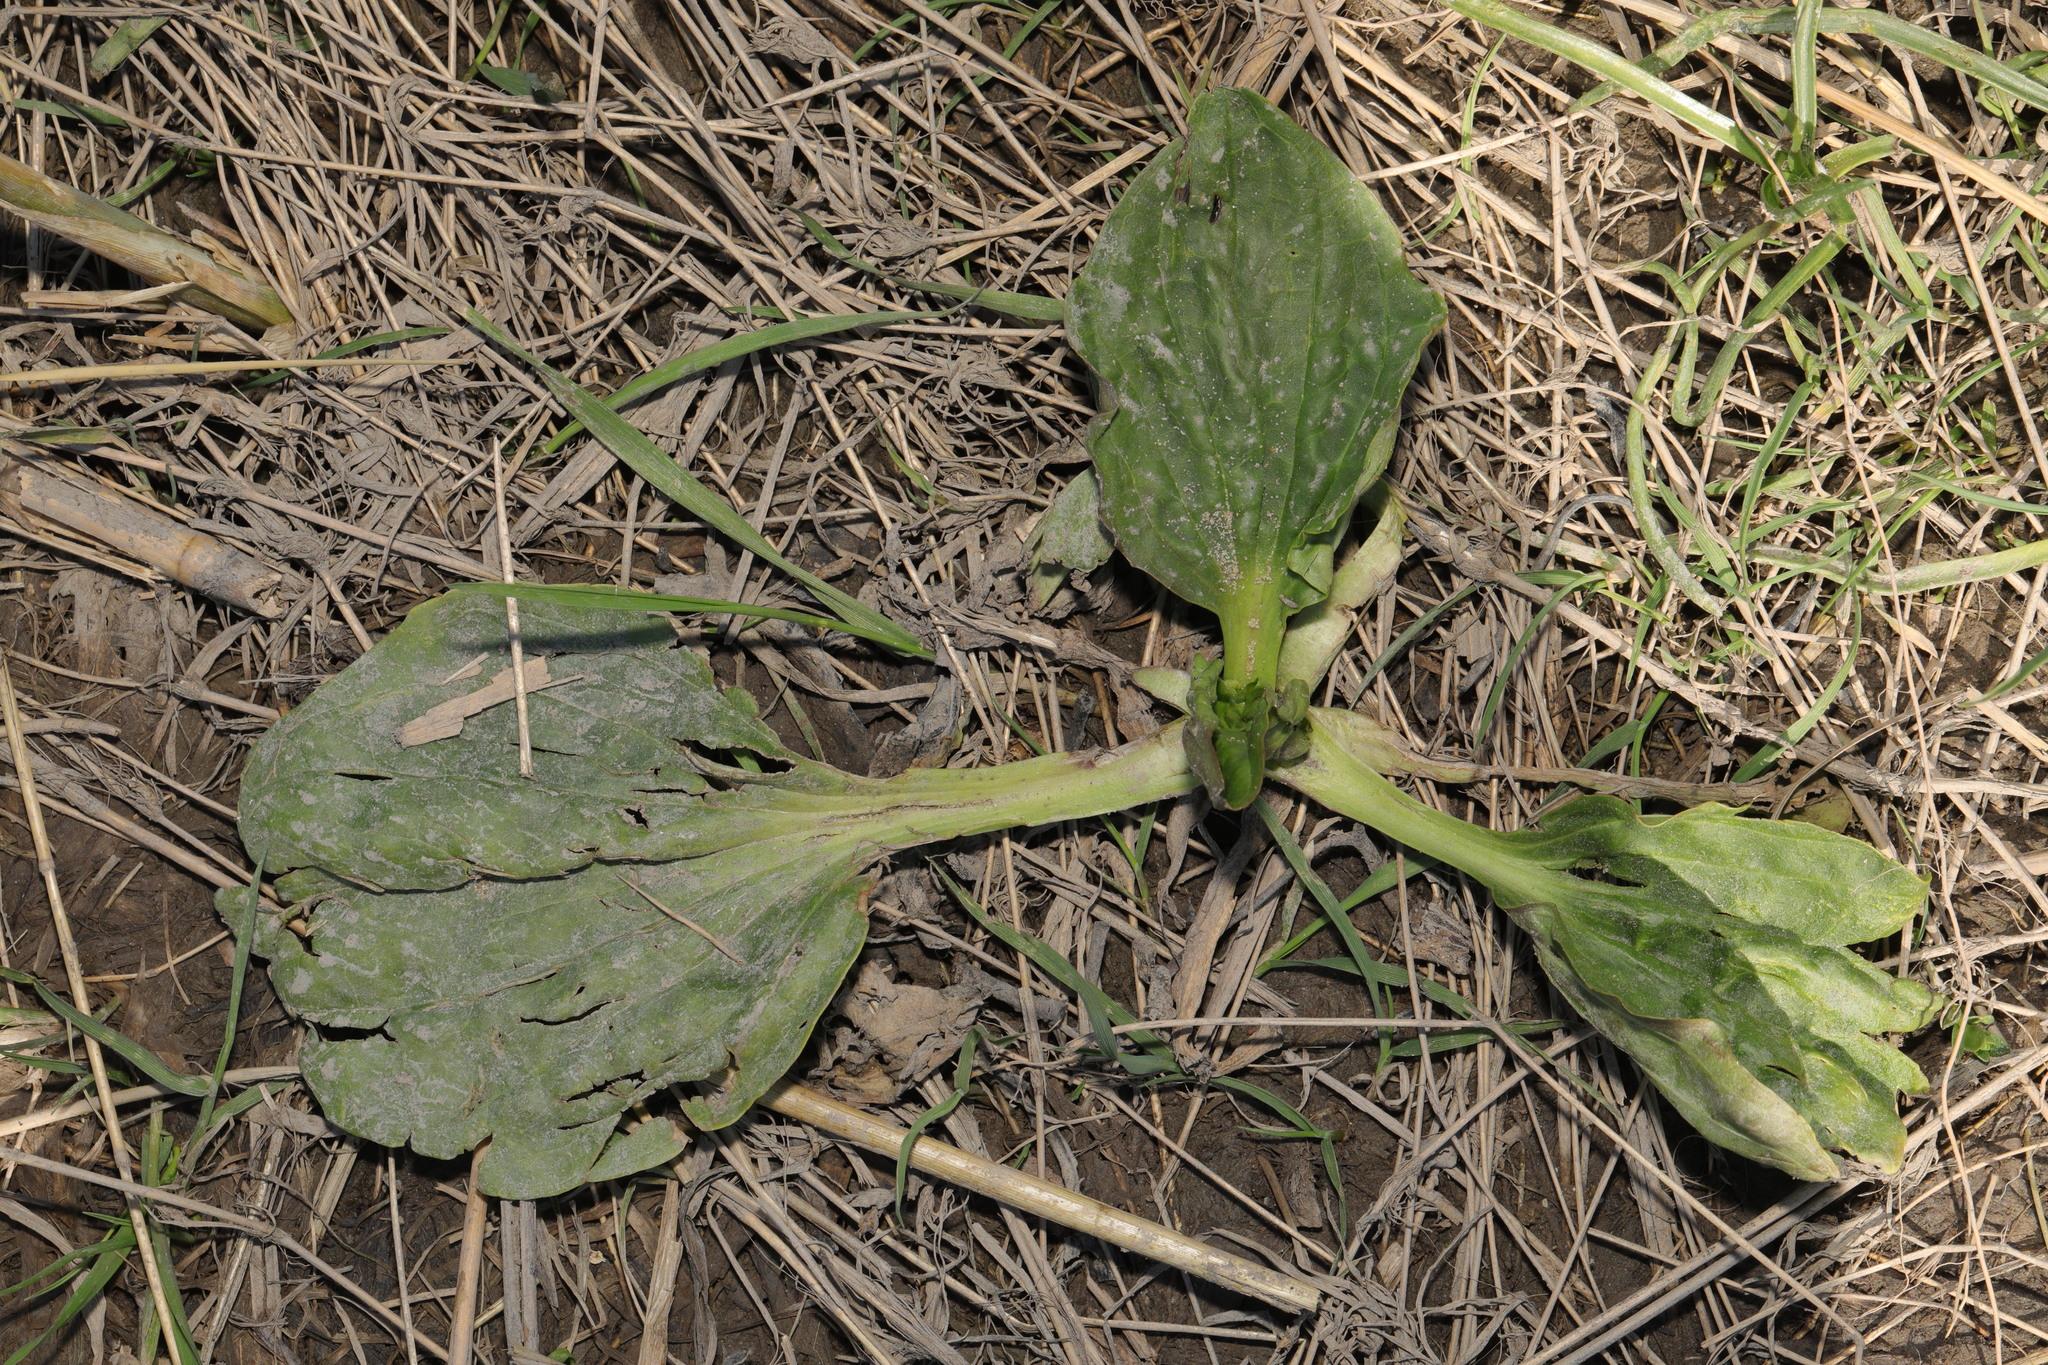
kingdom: Plantae
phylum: Tracheophyta
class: Magnoliopsida
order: Lamiales
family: Plantaginaceae
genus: Plantago
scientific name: Plantago major
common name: Common plantain
